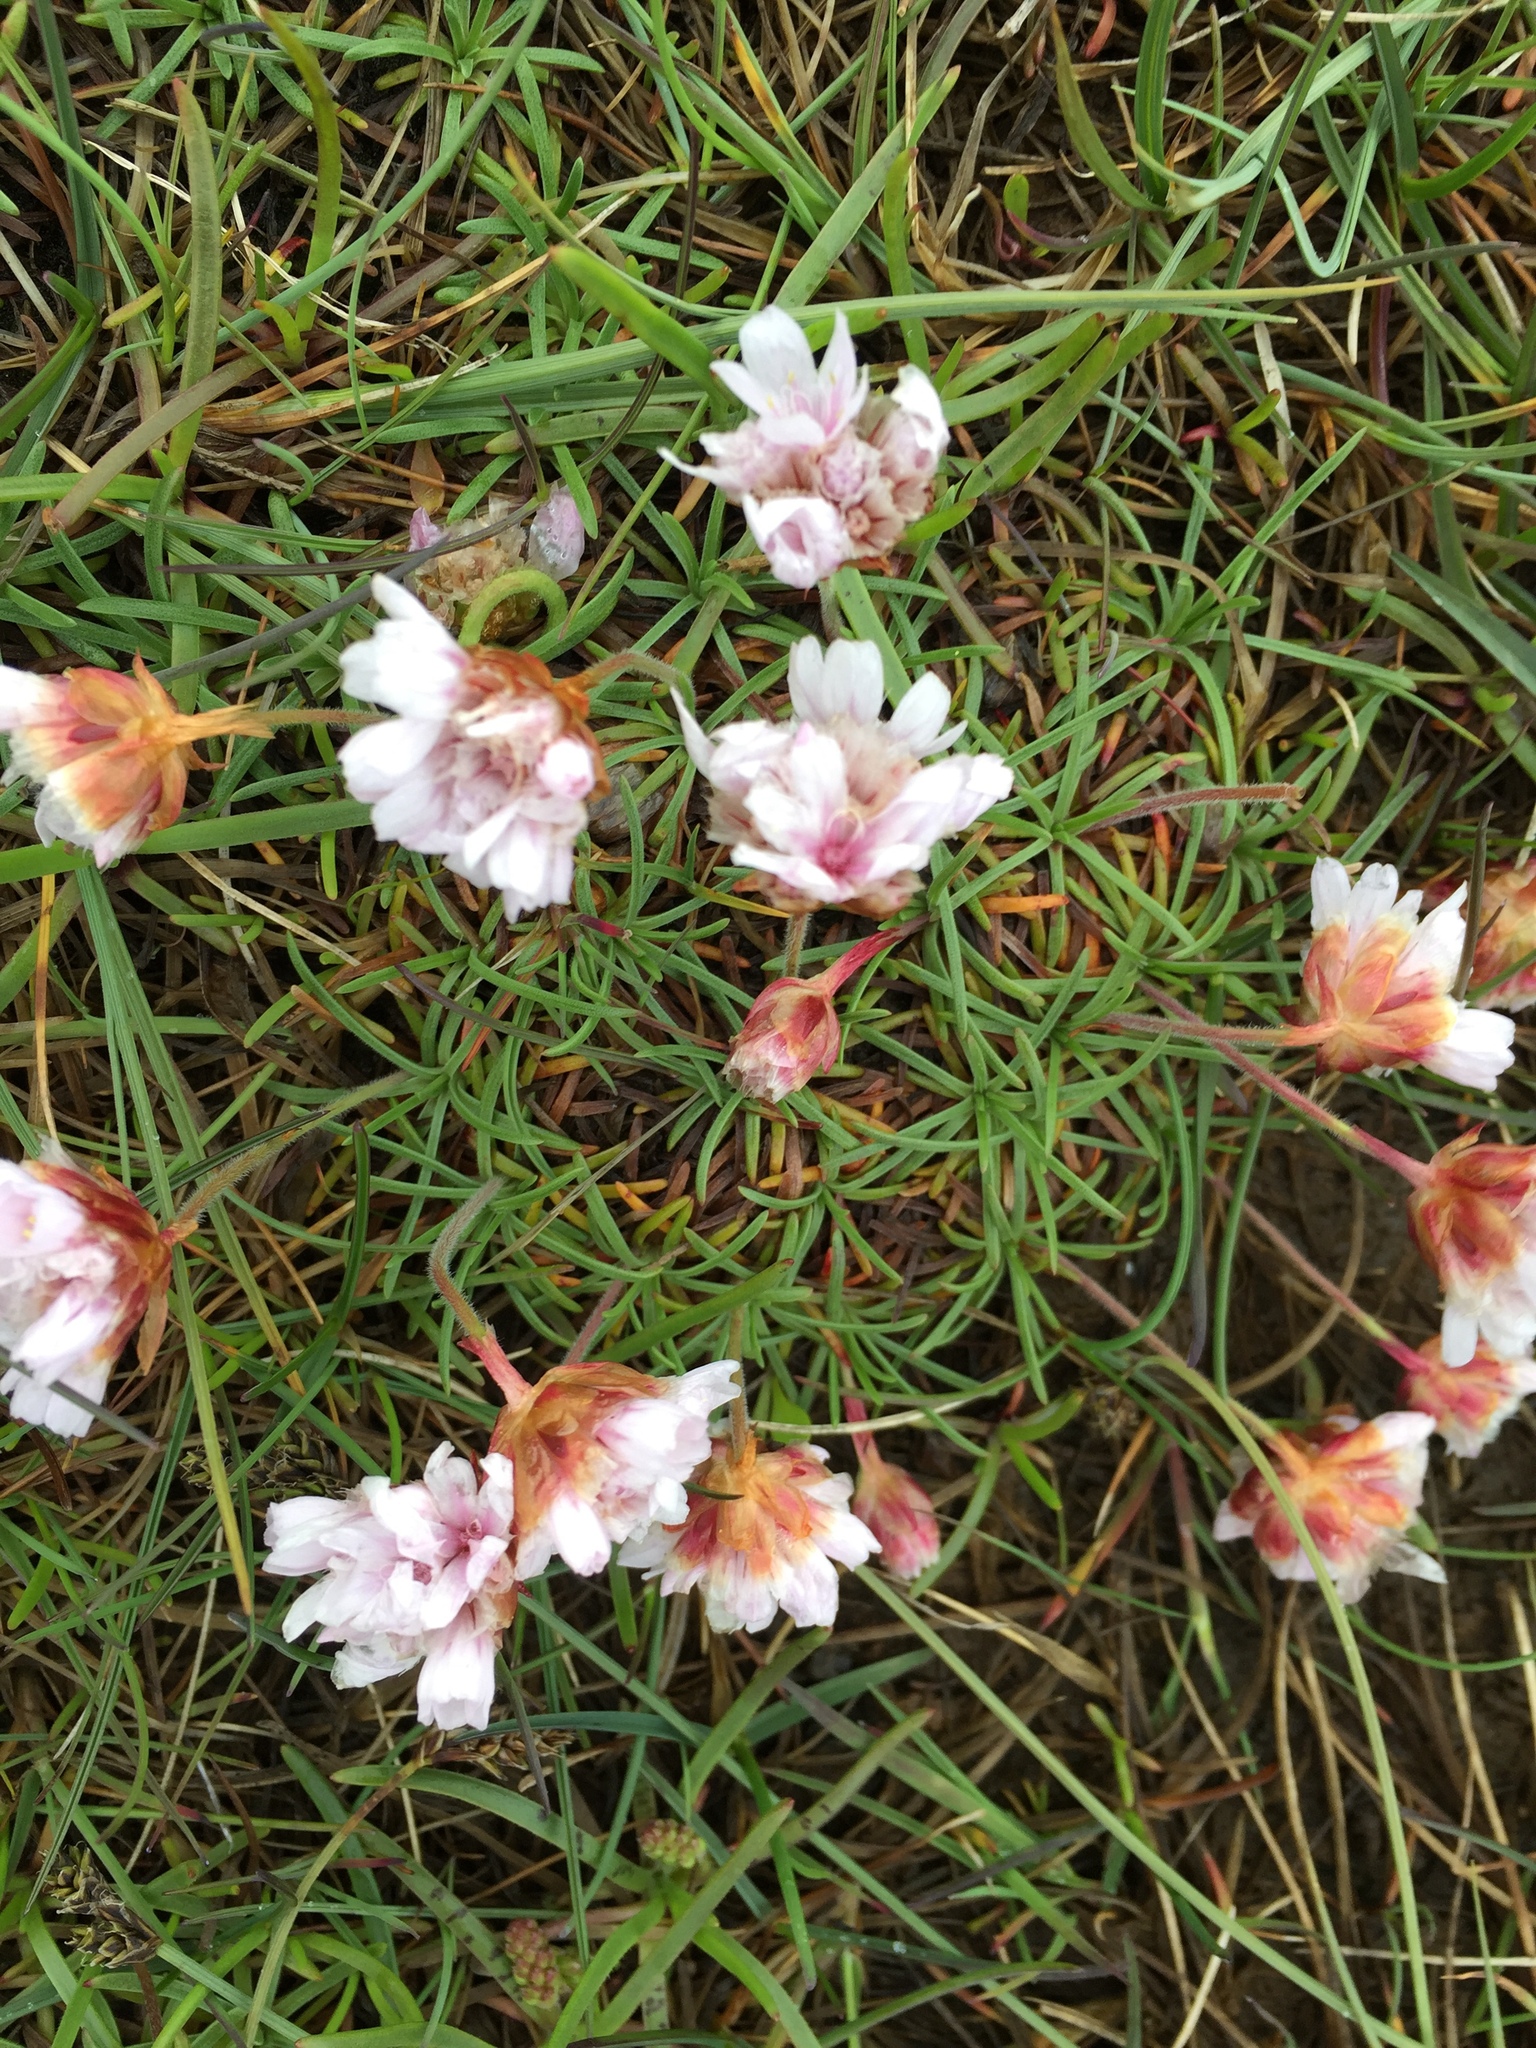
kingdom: Plantae
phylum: Tracheophyta
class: Magnoliopsida
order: Caryophyllales
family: Plumbaginaceae
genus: Armeria
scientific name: Armeria maritima
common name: Thrift
